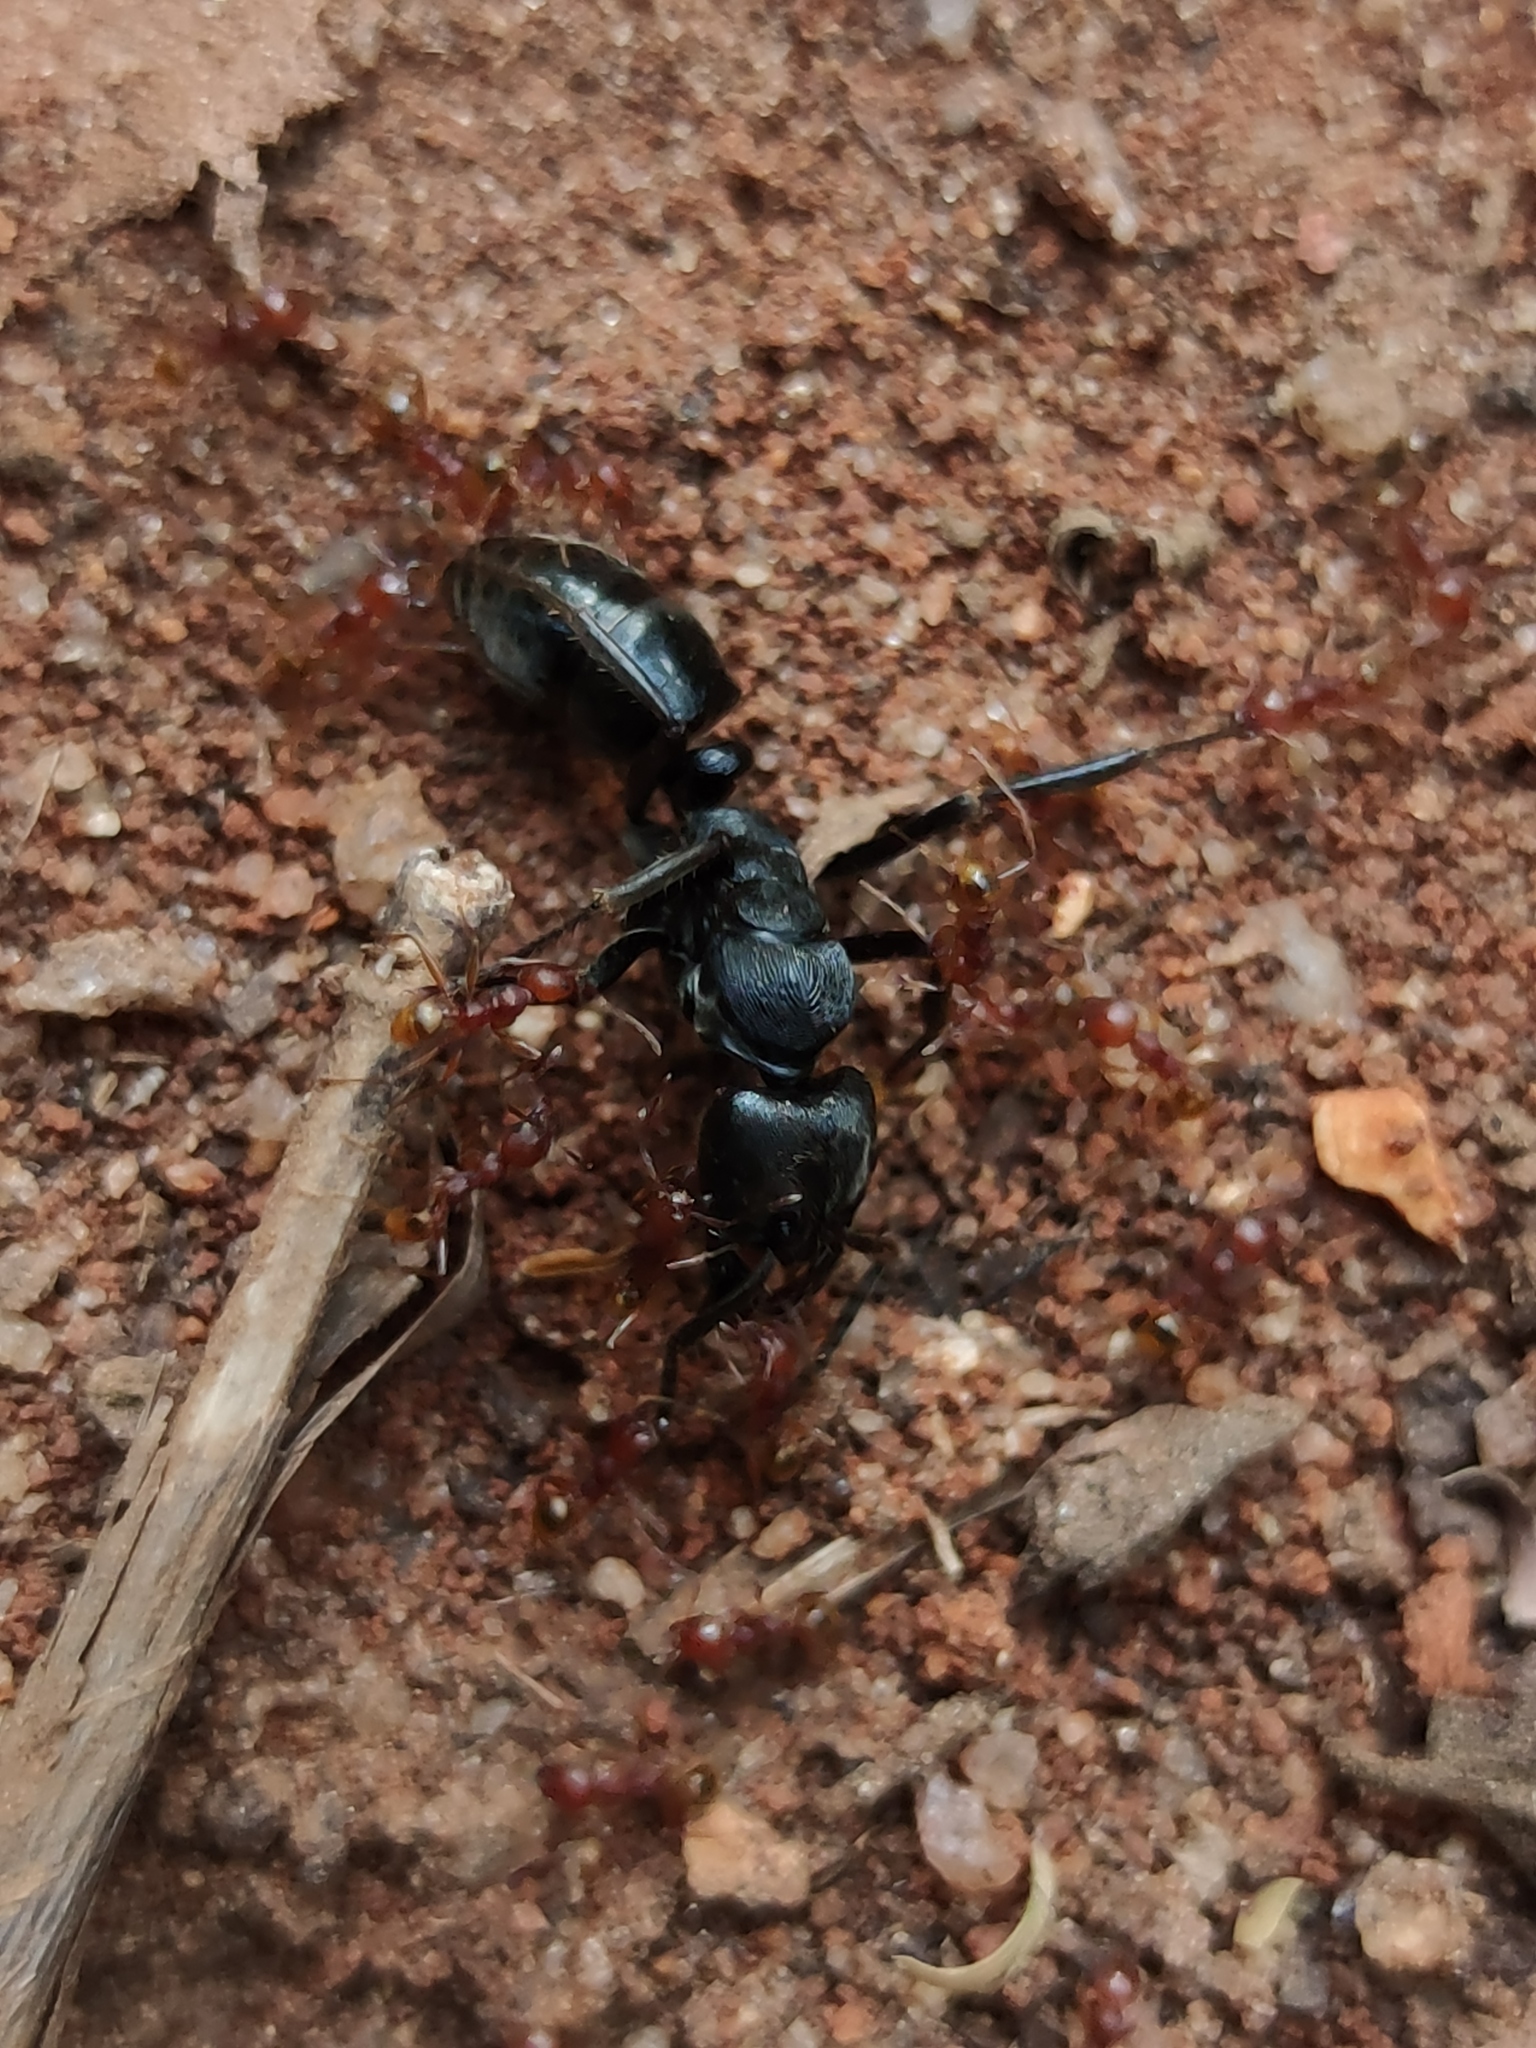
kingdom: Animalia
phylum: Arthropoda
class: Insecta
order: Hymenoptera
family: Formicidae
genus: Paltothyreus
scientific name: Paltothyreus tarsatus
